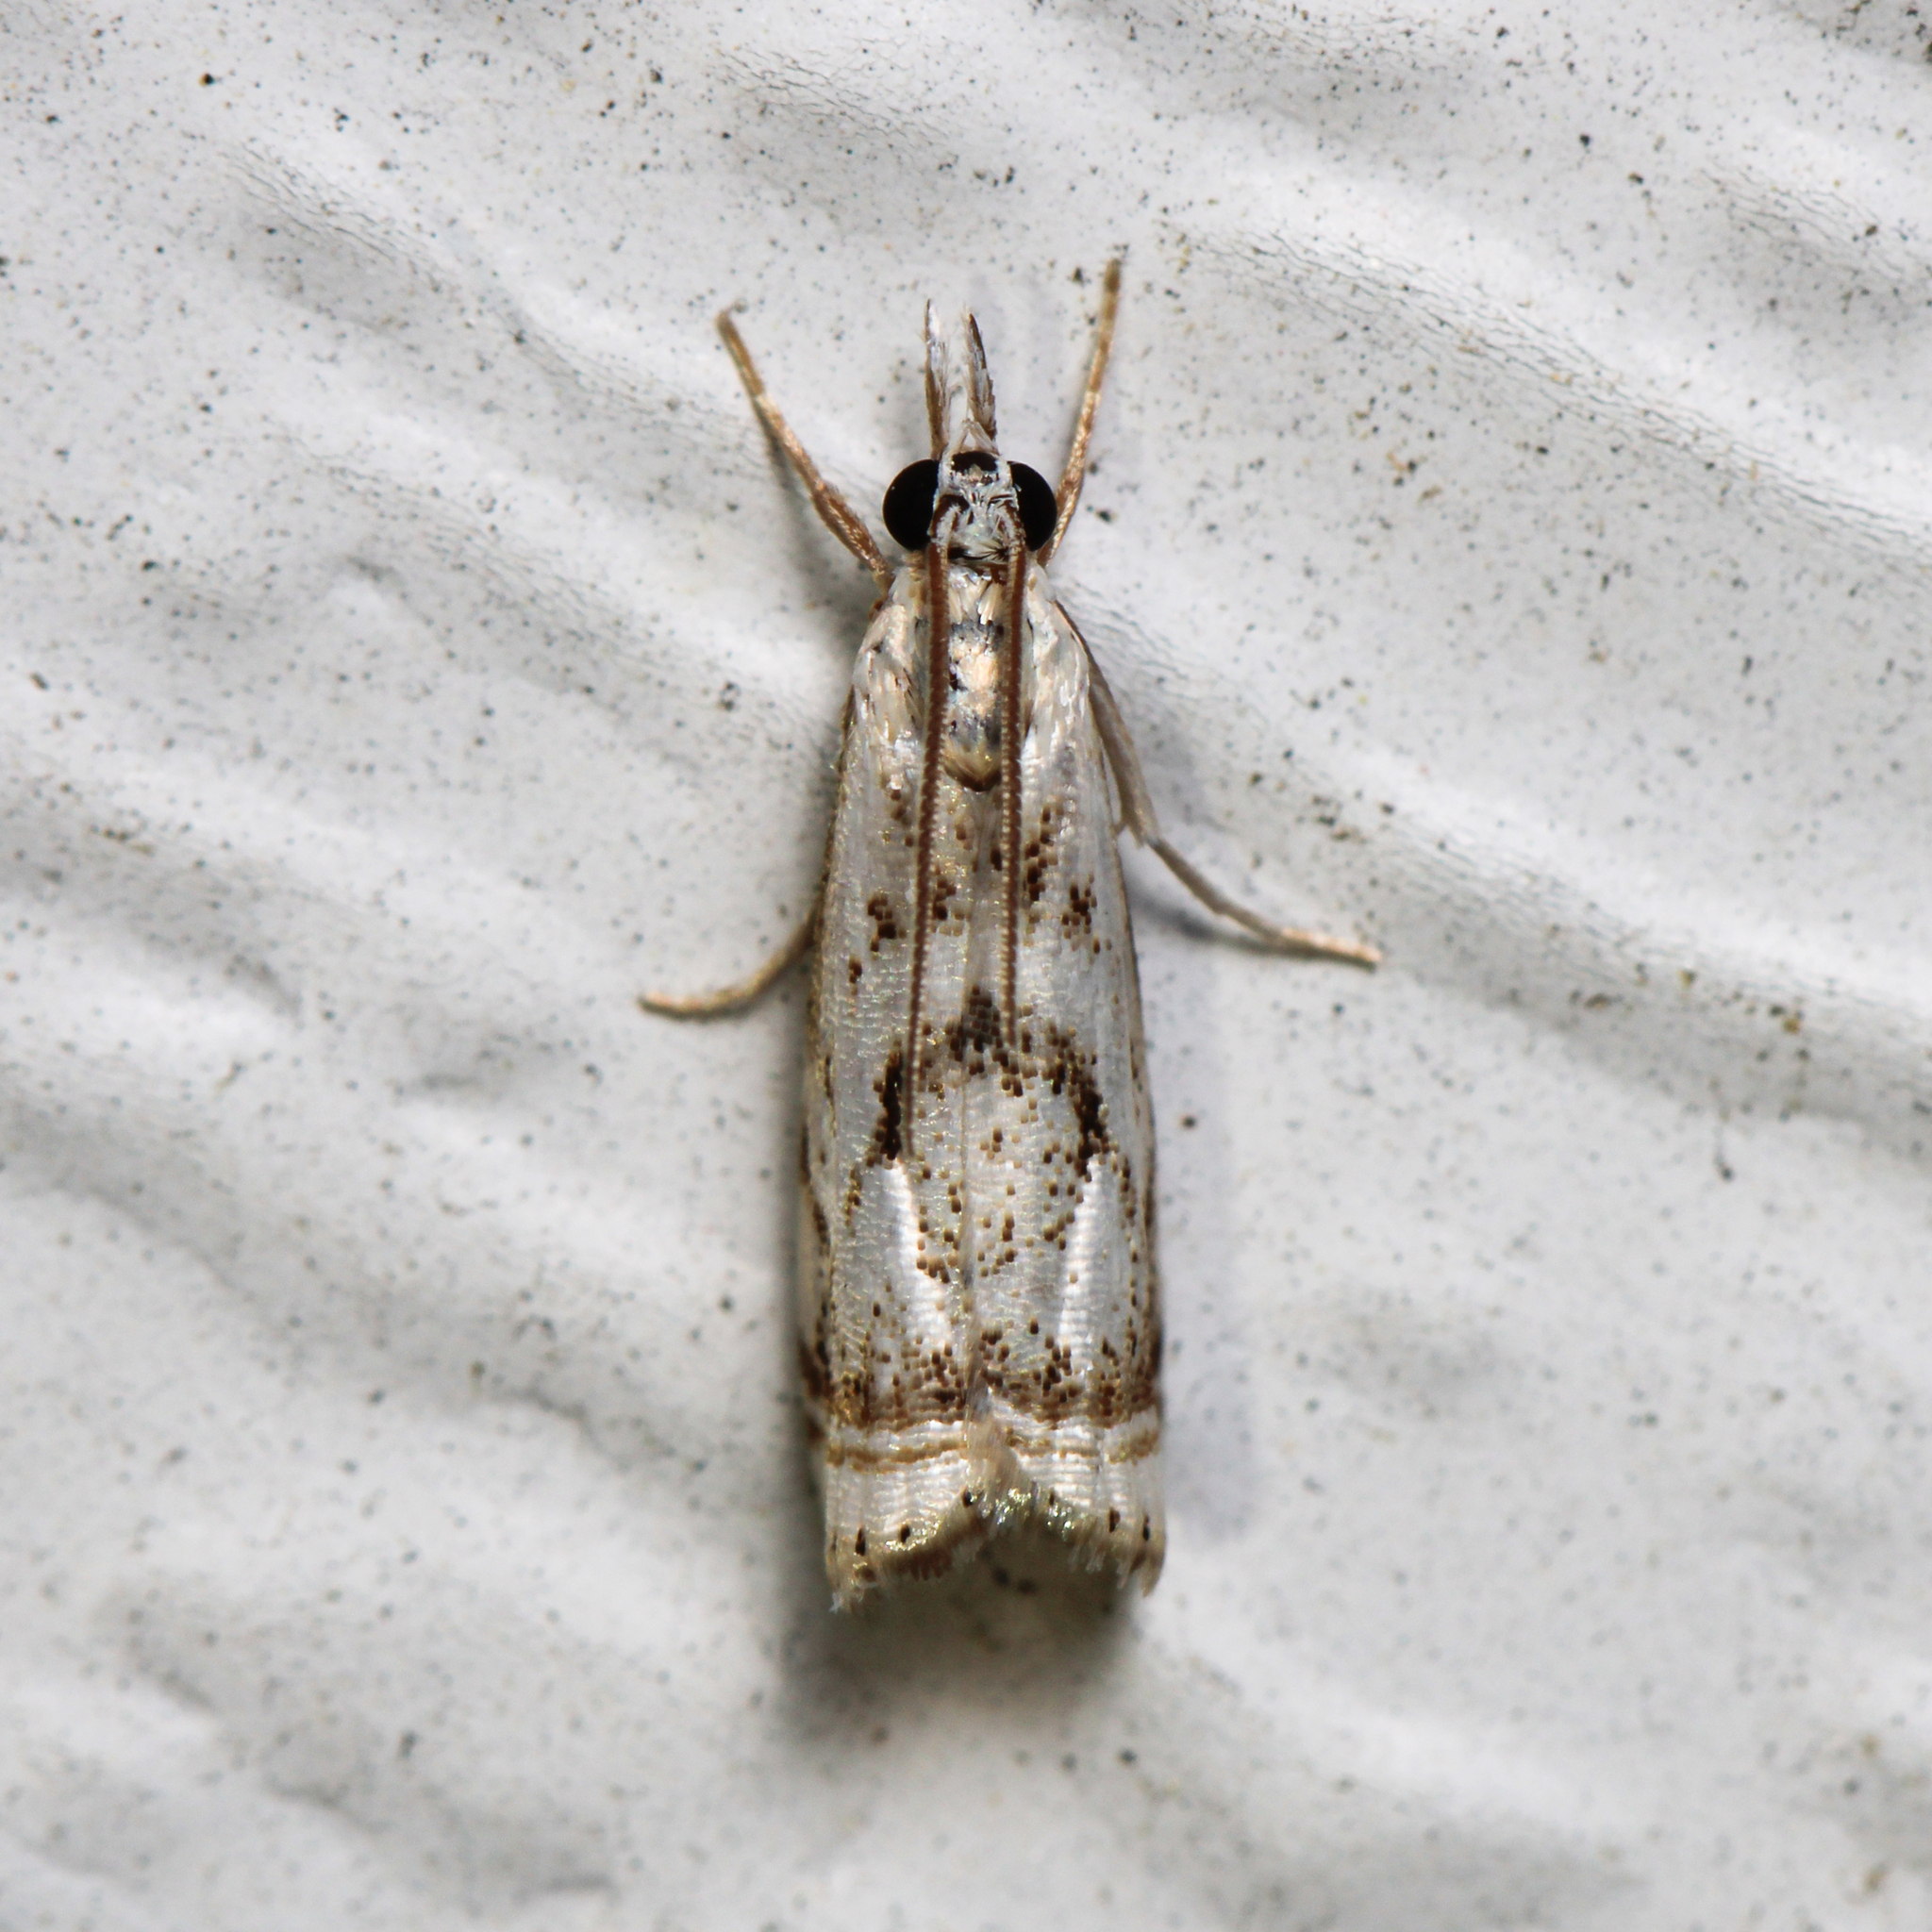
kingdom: Animalia
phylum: Arthropoda
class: Insecta
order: Lepidoptera
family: Crambidae
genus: Microcrambus
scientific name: Microcrambus elegans
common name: Elegant grass-veneer
